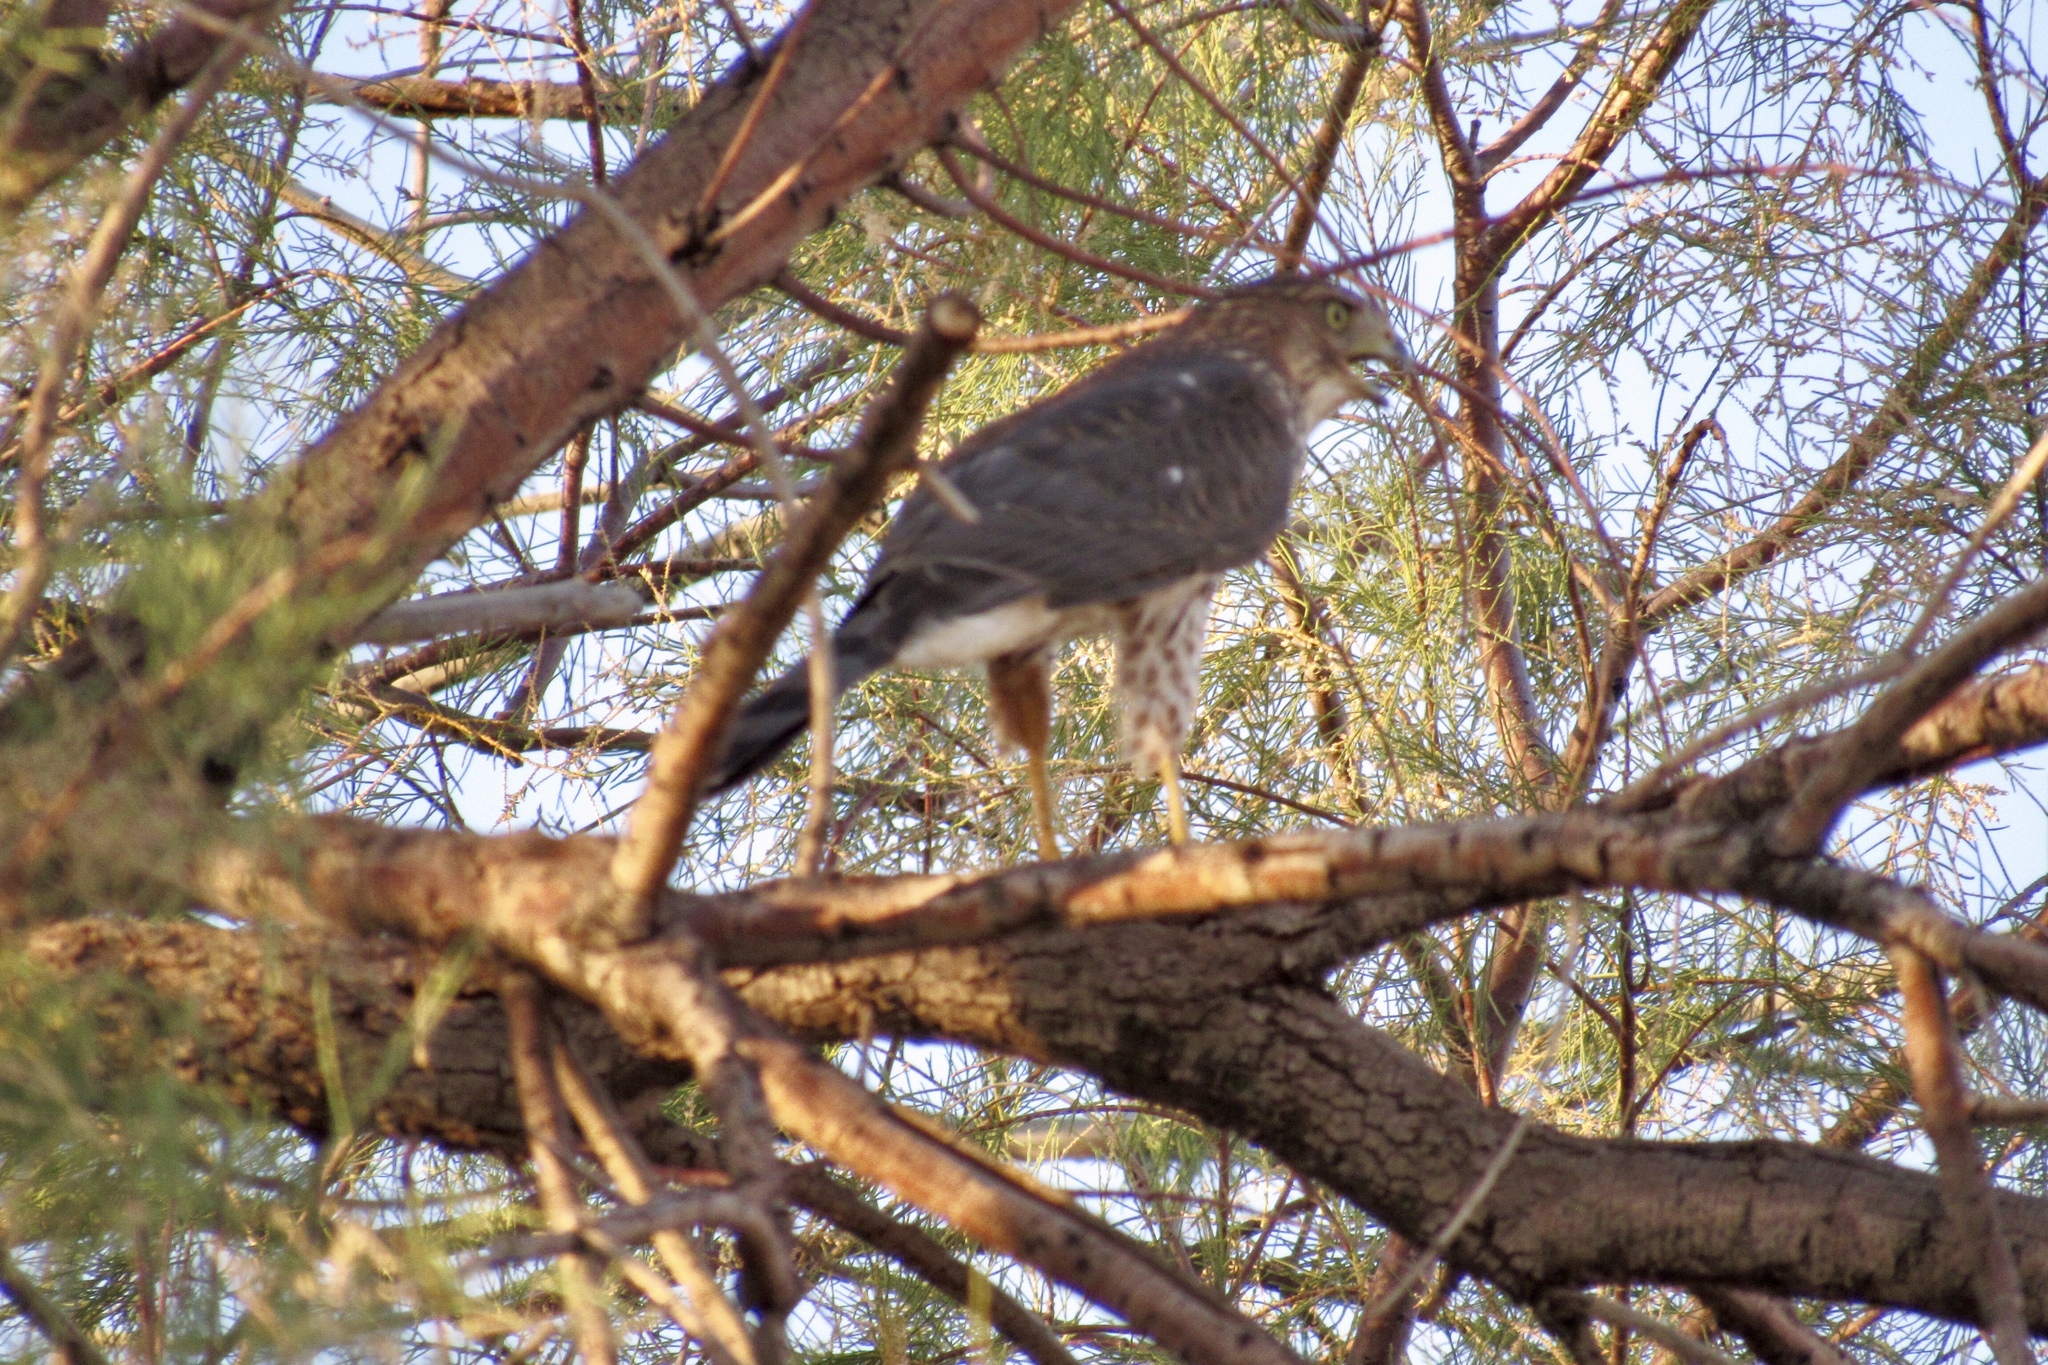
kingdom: Animalia
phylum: Chordata
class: Aves
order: Accipitriformes
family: Accipitridae
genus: Accipiter
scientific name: Accipiter cooperii
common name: Cooper's hawk
